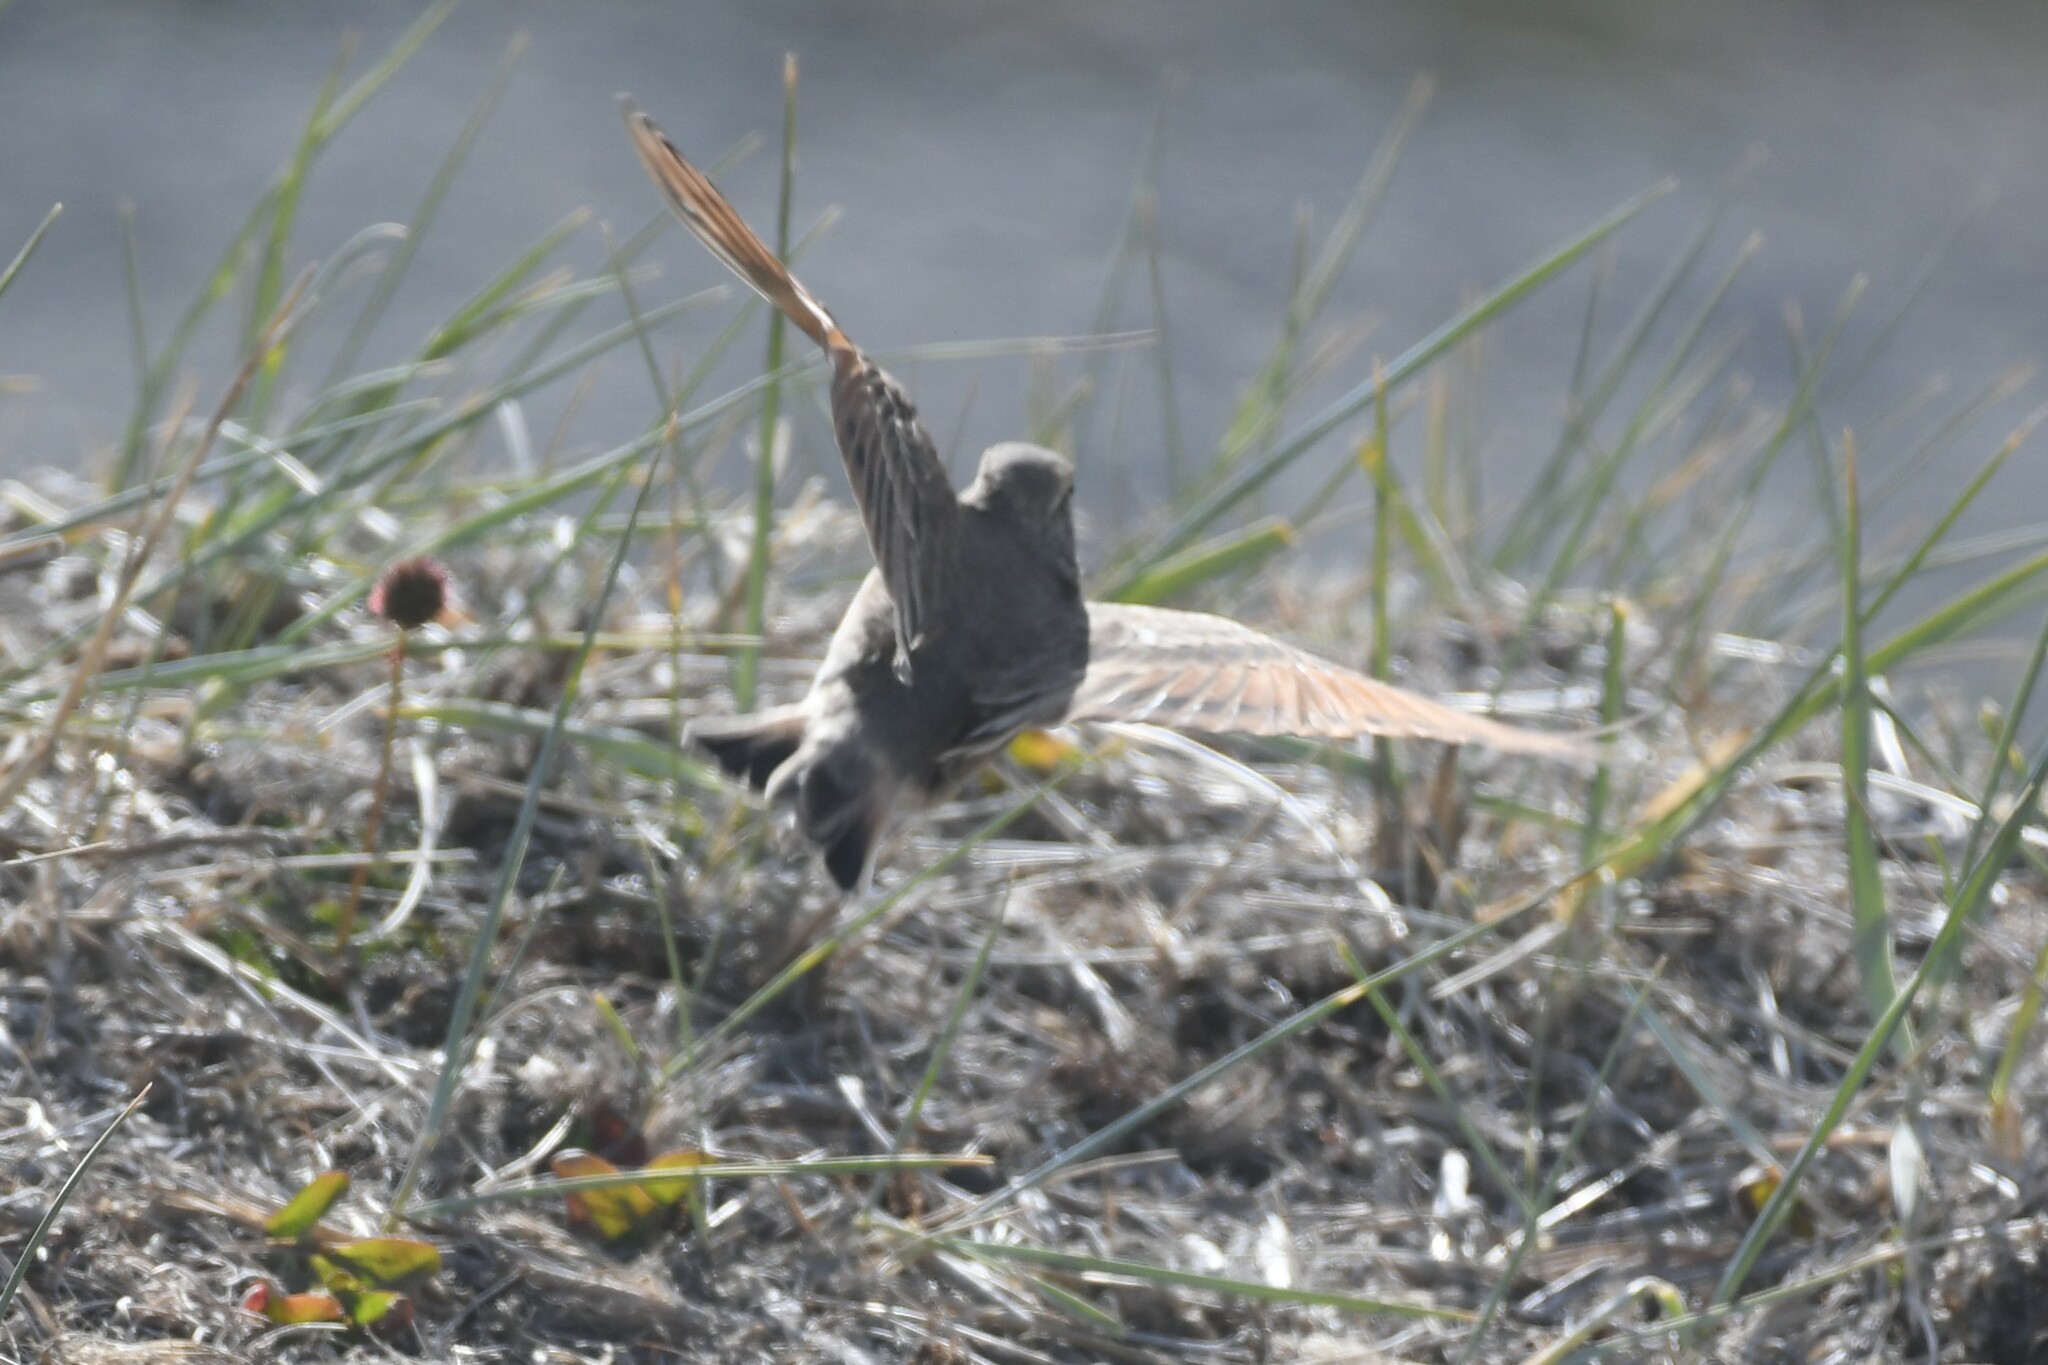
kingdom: Animalia
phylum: Chordata
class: Aves
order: Passeriformes
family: Furnariidae
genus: Geositta
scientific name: Geositta cunicularia
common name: Common miner
